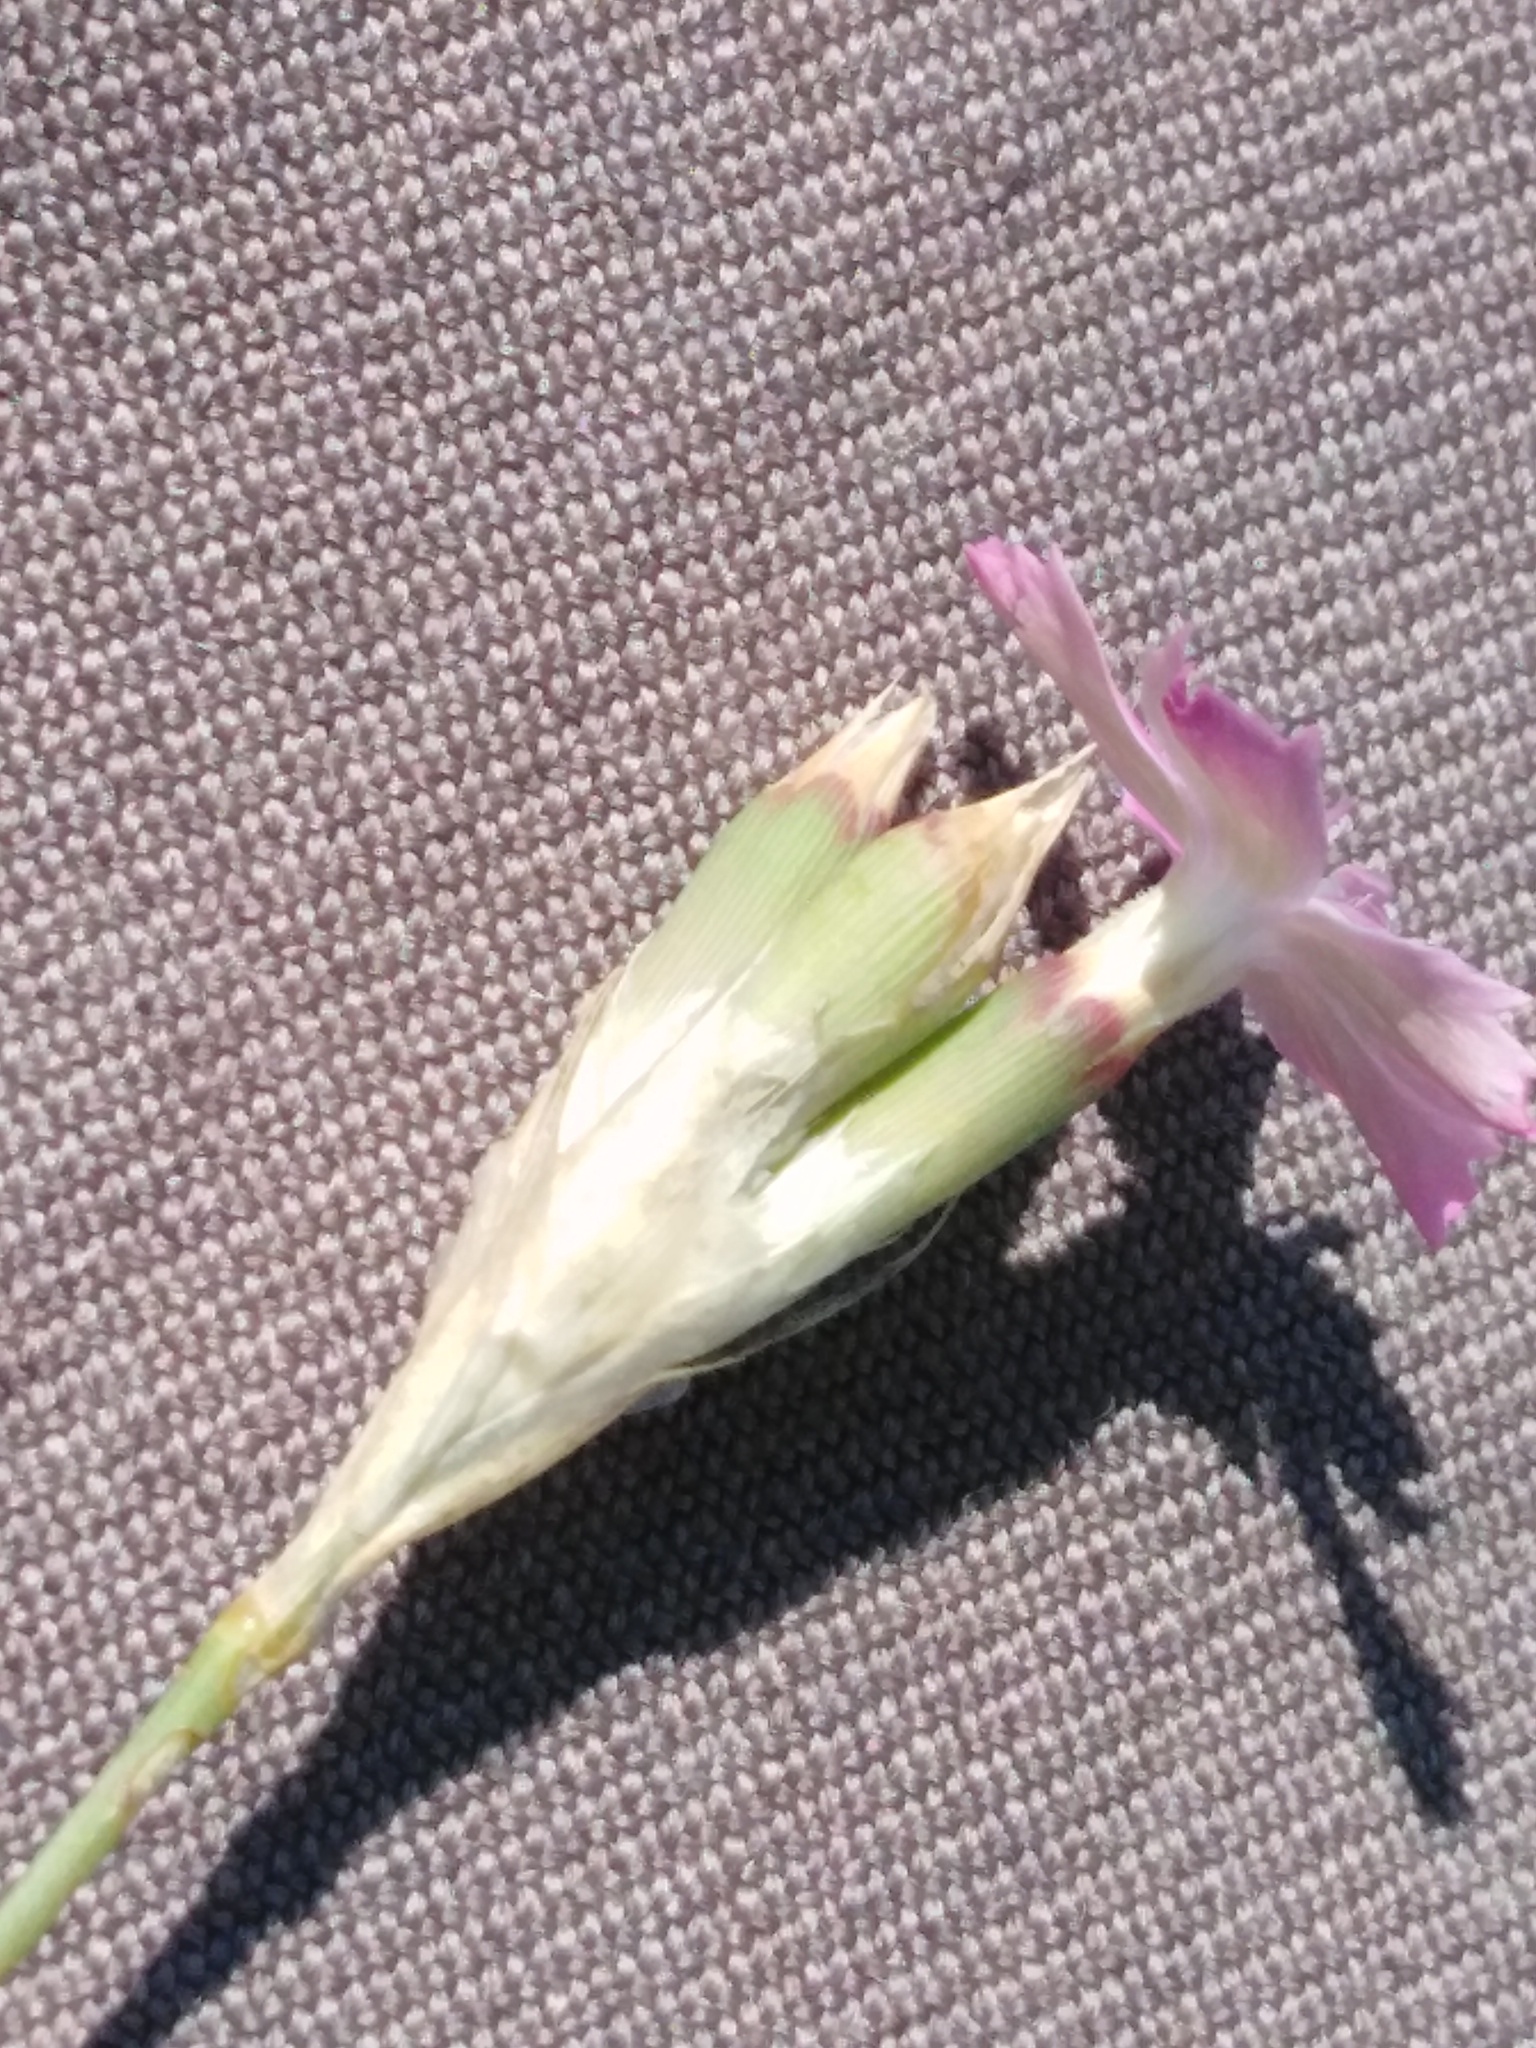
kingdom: Plantae
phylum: Tracheophyta
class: Magnoliopsida
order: Caryophyllales
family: Caryophyllaceae
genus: Dianthus
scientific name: Dianthus borbasii
